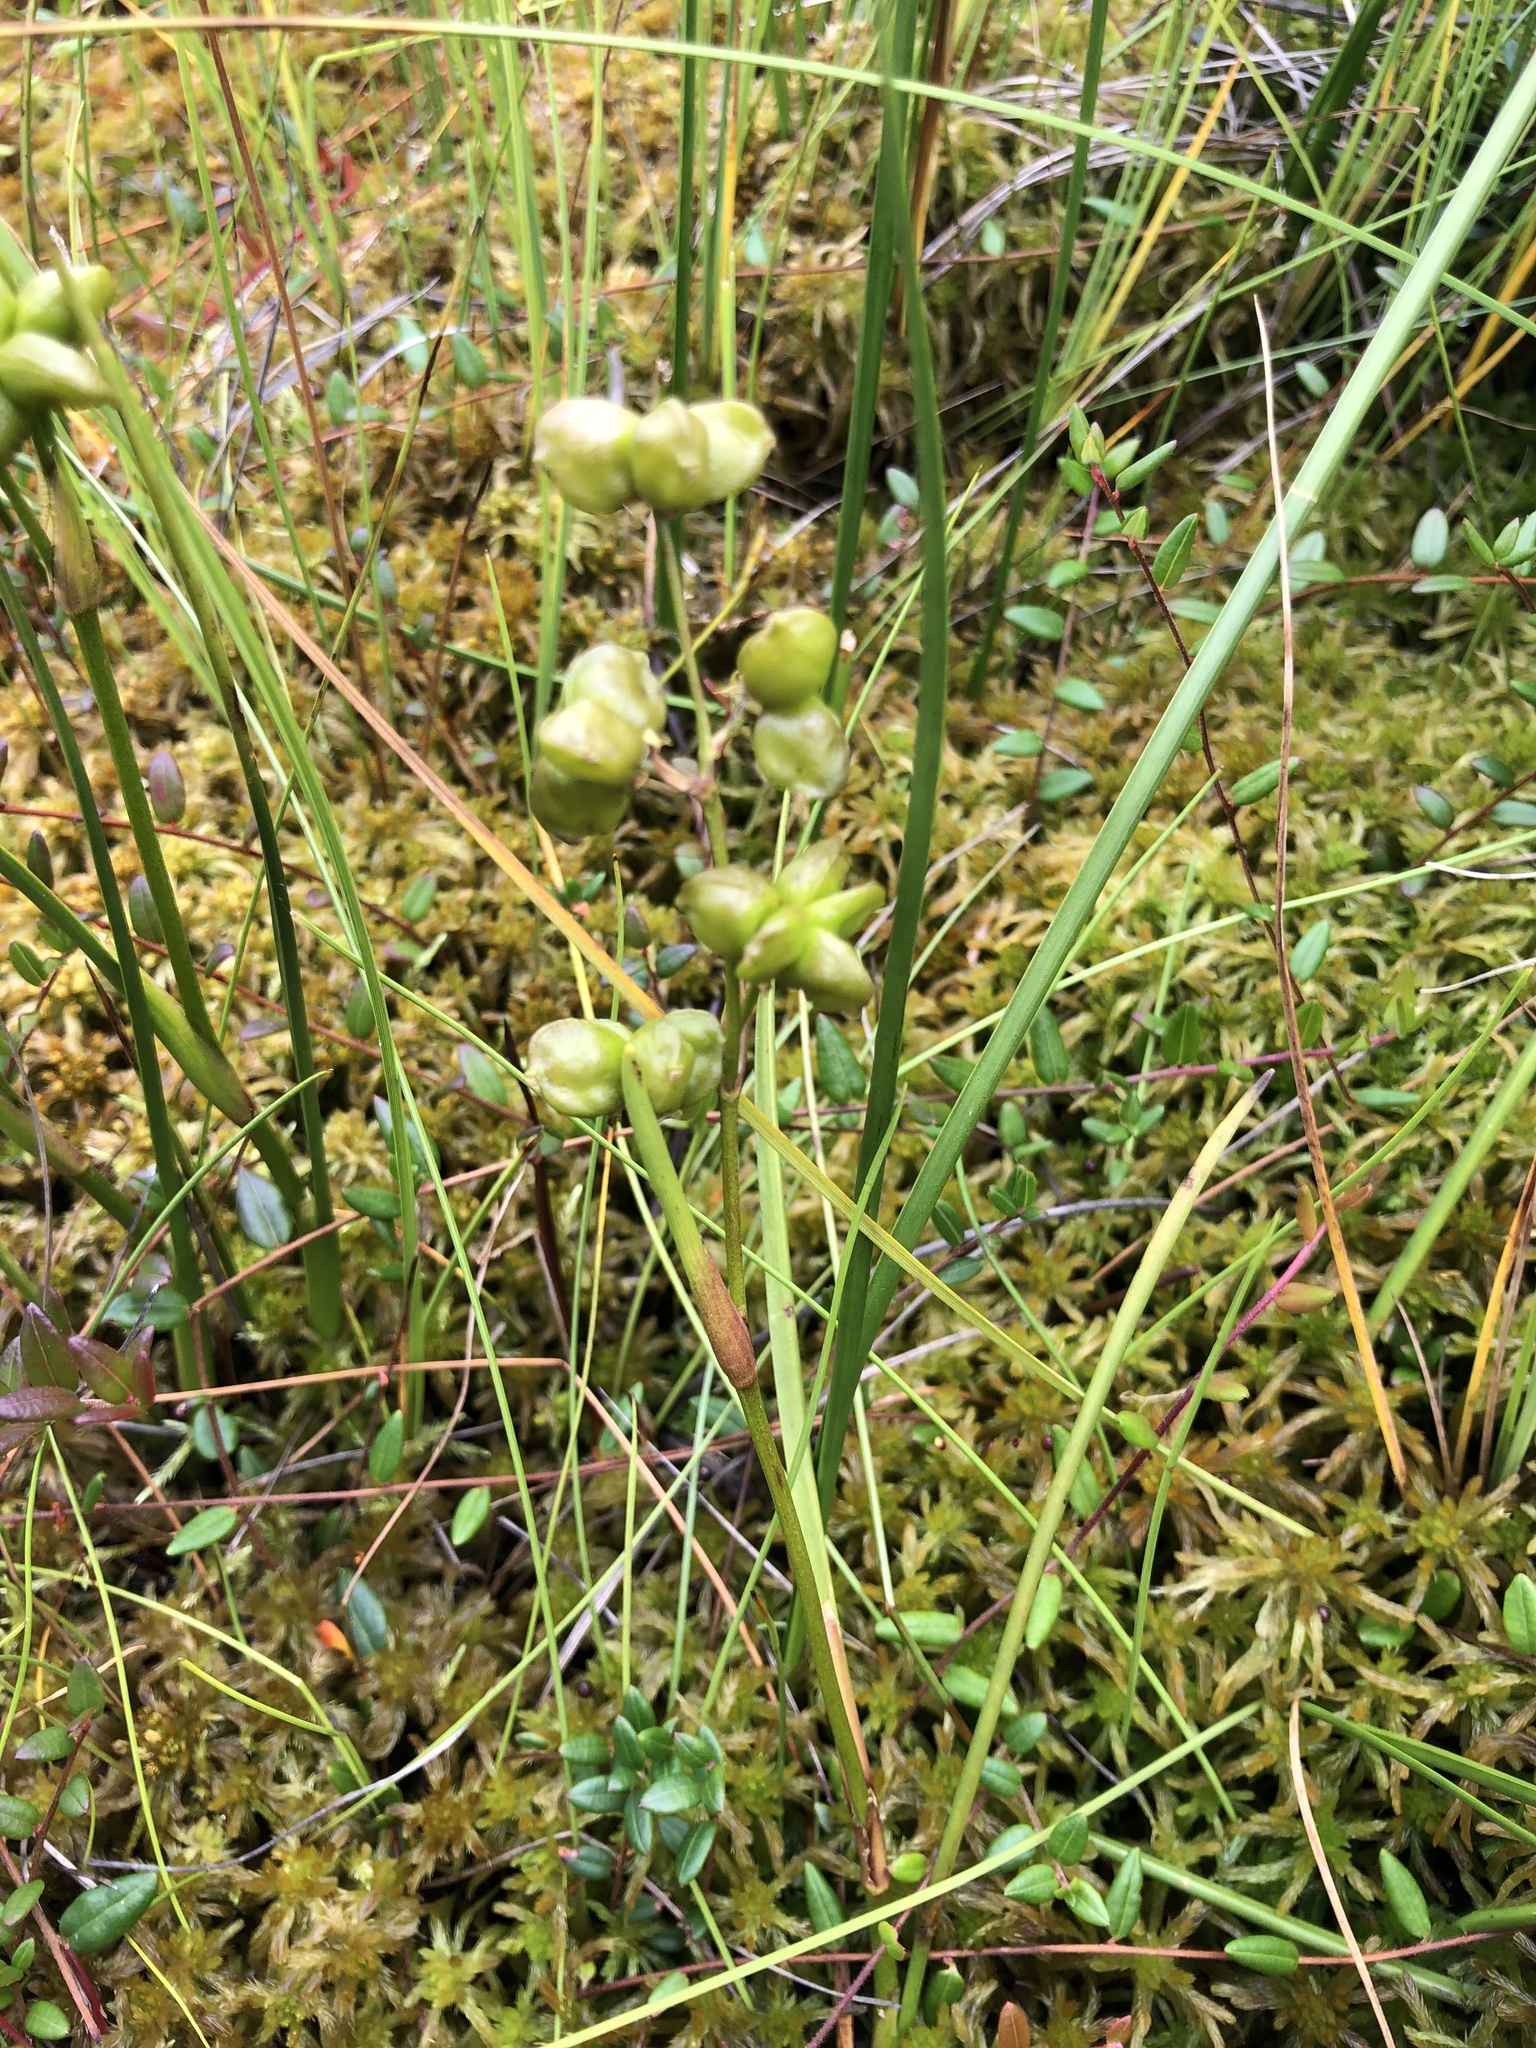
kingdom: Plantae
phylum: Tracheophyta
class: Liliopsida
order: Alismatales
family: Scheuchzeriaceae
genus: Scheuchzeria
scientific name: Scheuchzeria palustris
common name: Rannoch-rush
